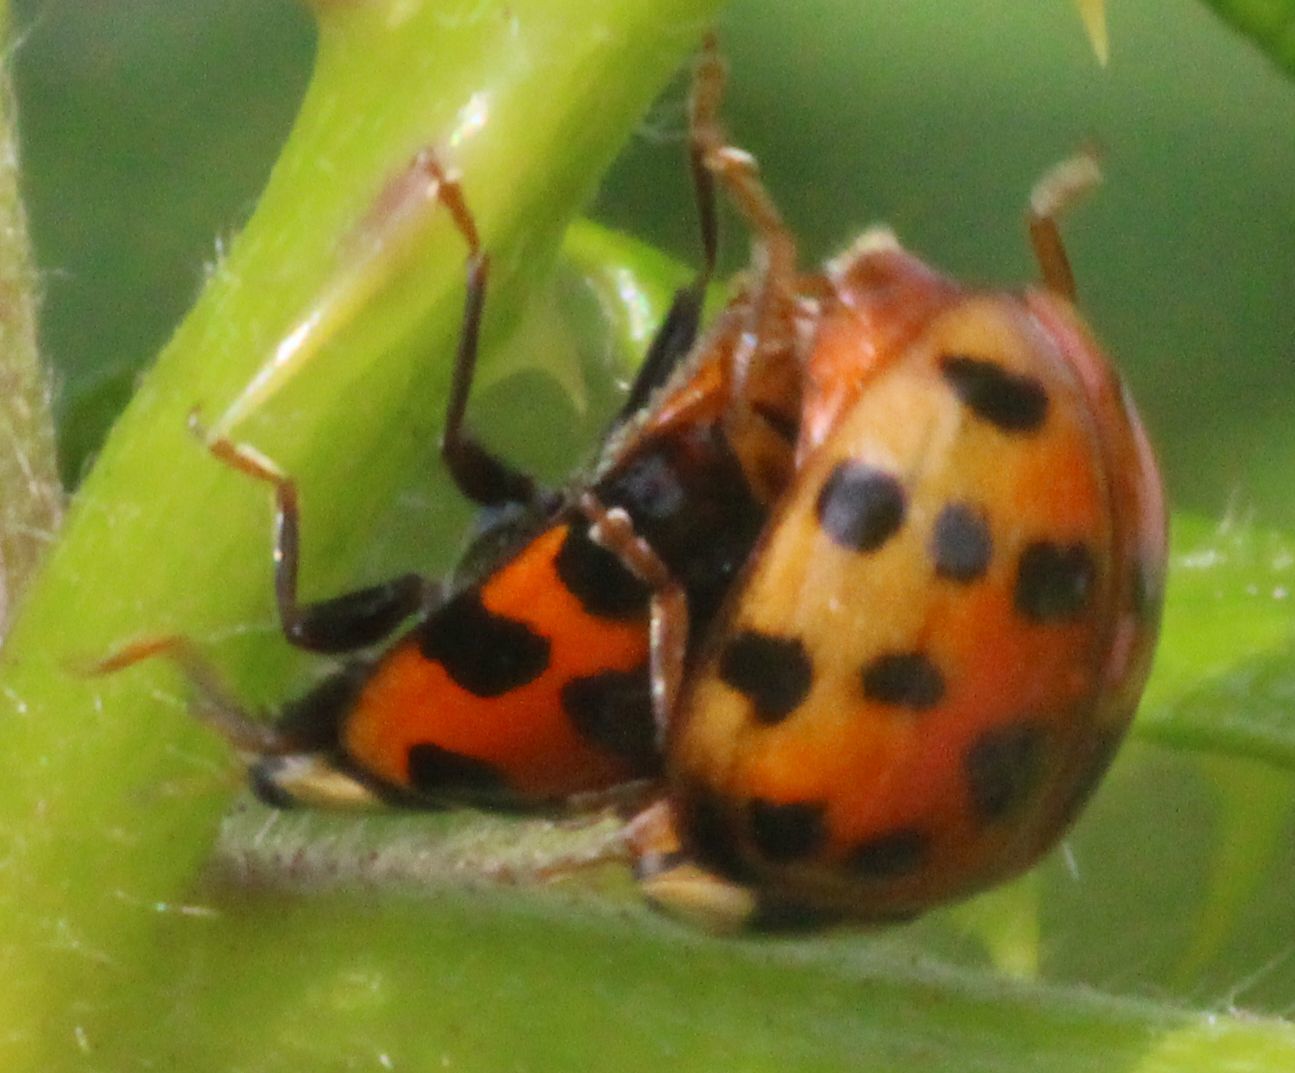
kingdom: Animalia
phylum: Arthropoda
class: Insecta
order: Coleoptera
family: Coccinellidae
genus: Harmonia
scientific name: Harmonia axyridis
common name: Harlequin ladybird
